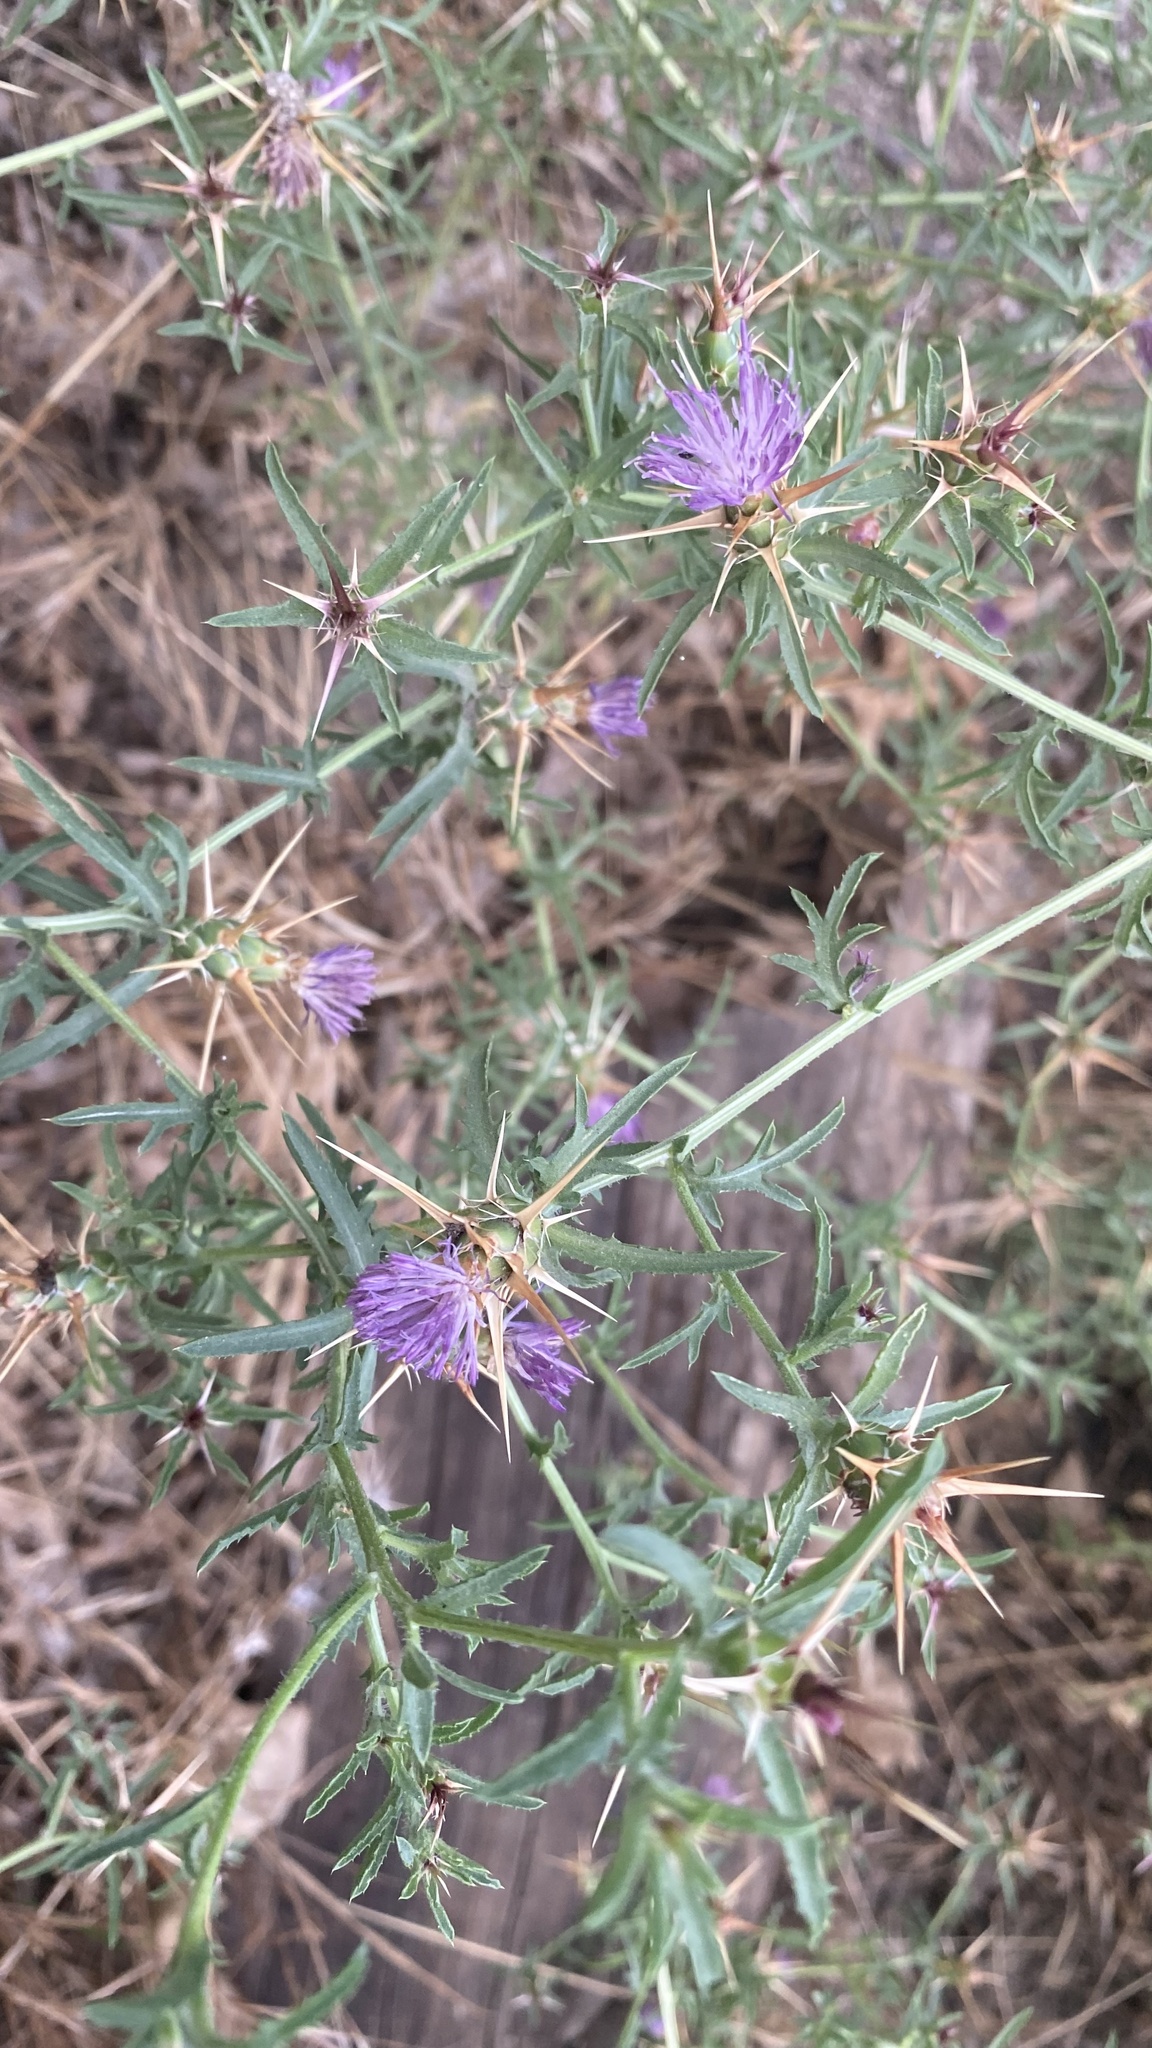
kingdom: Plantae
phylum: Tracheophyta
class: Magnoliopsida
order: Asterales
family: Asteraceae
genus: Centaurea
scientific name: Centaurea calcitrapa
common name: Red star-thistle
